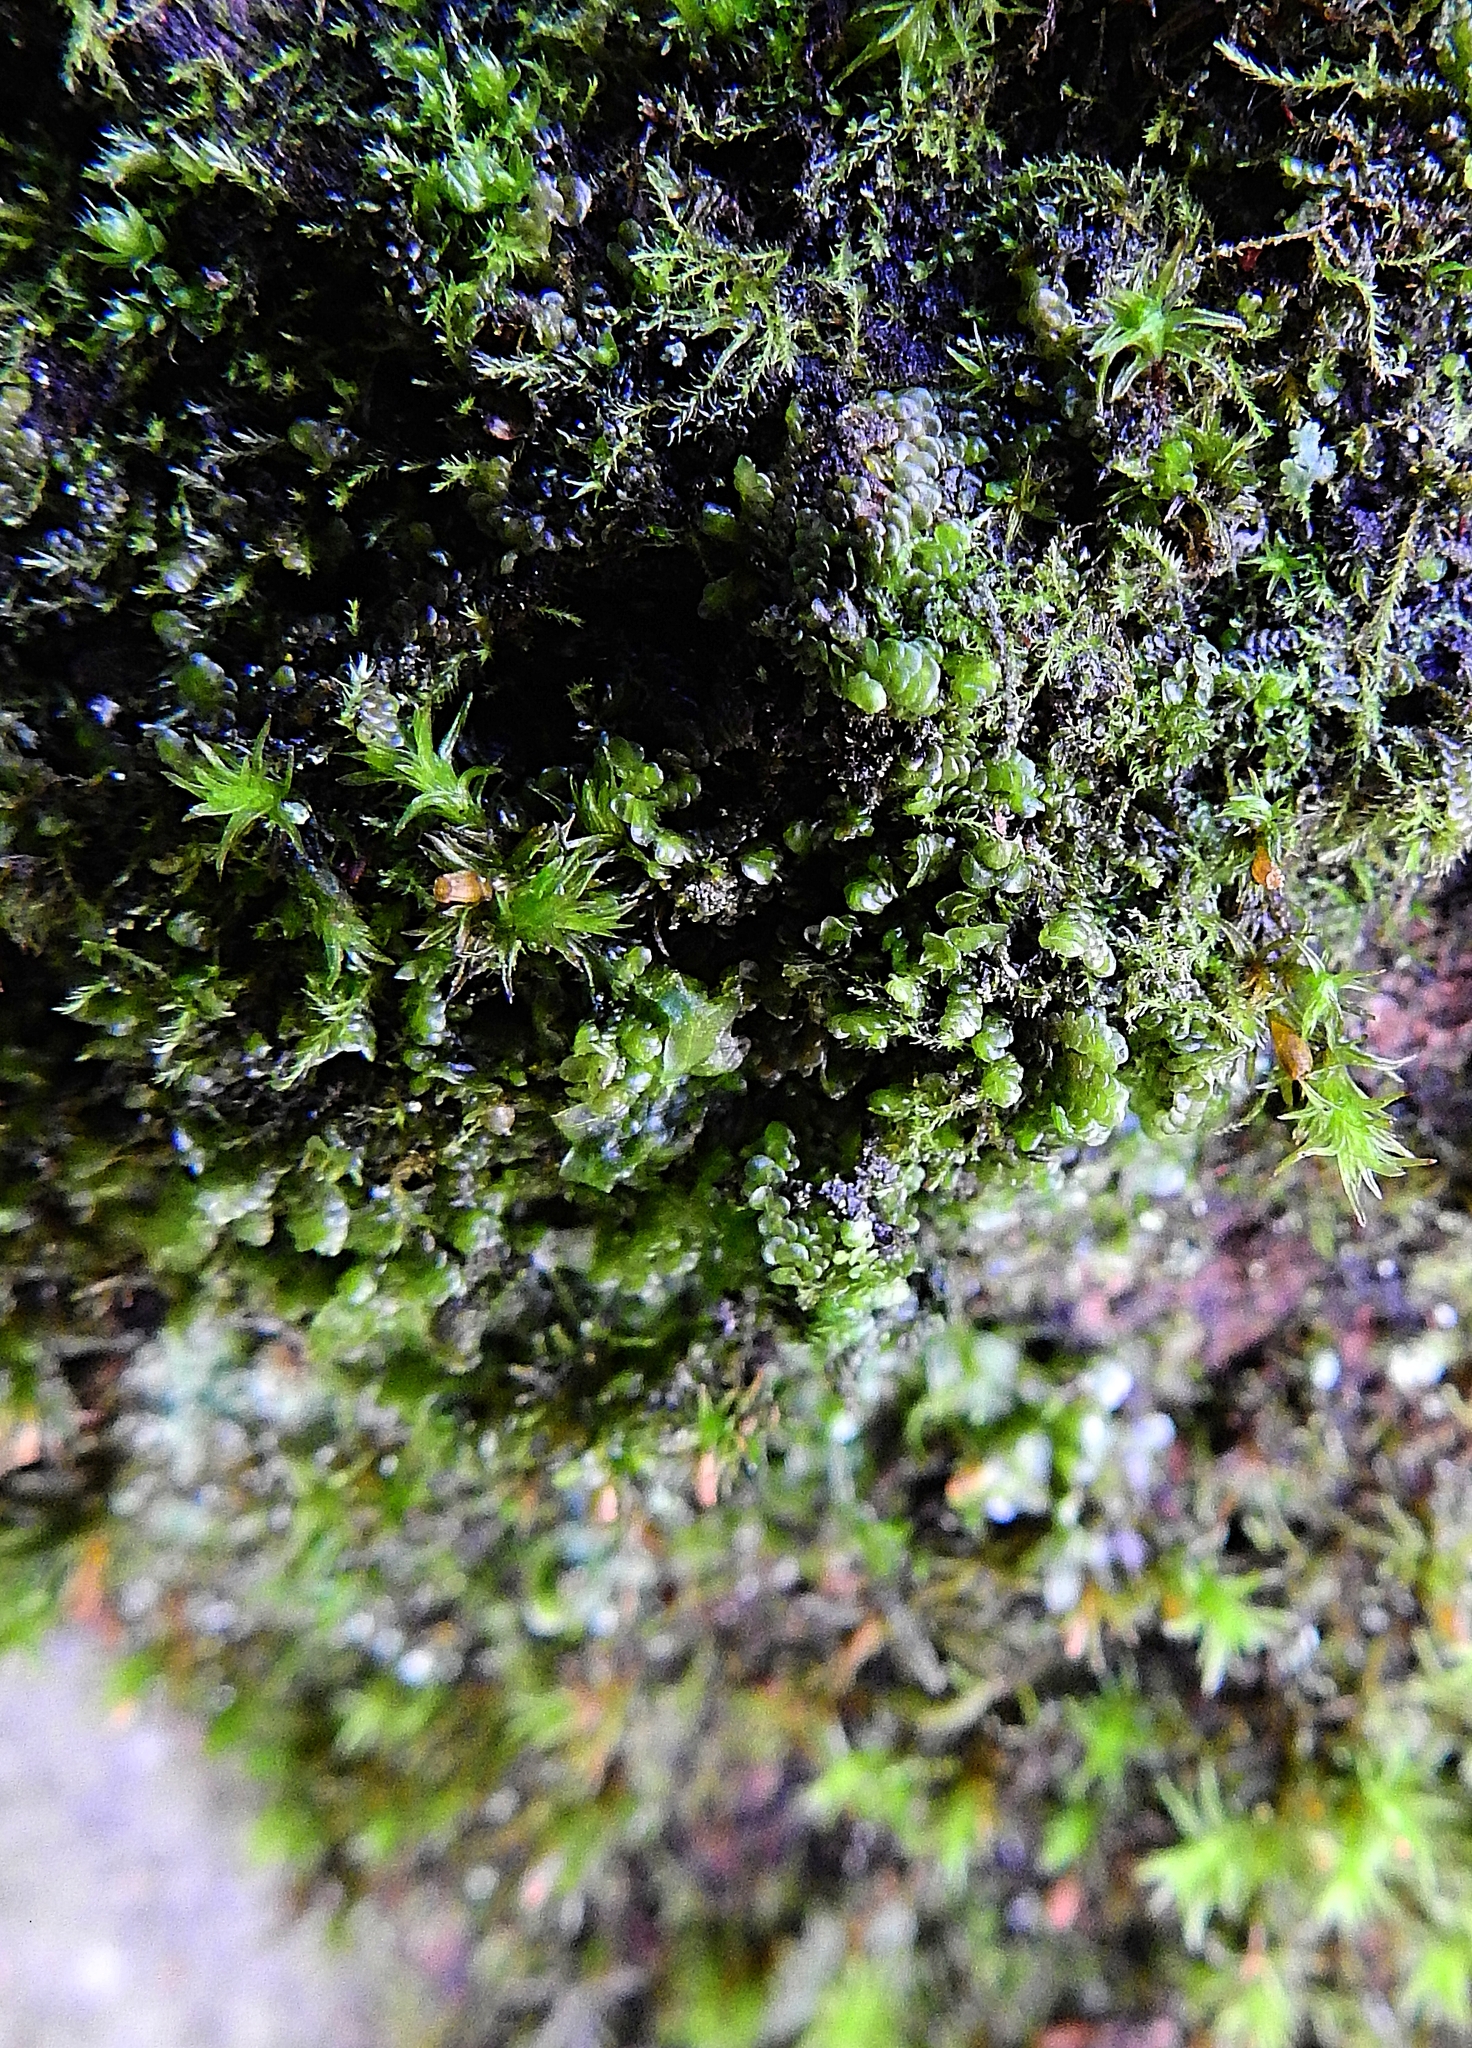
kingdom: Plantae
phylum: Marchantiophyta
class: Jungermanniopsida
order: Porellales
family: Radulaceae
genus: Radula
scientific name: Radula complanata
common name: Flat-leaved scalewort
